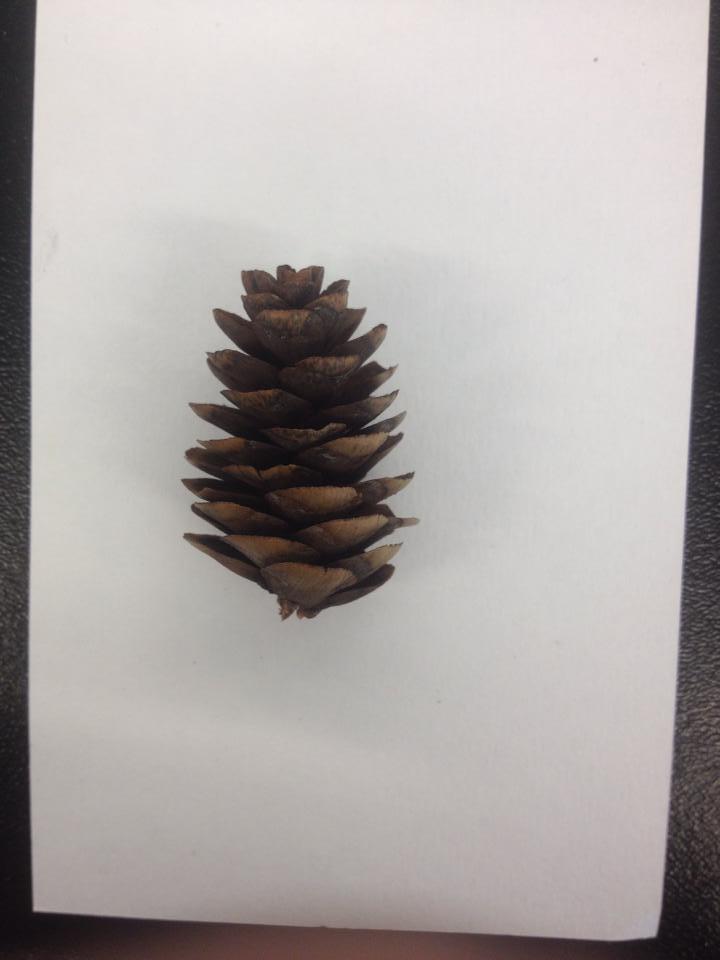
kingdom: Plantae
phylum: Tracheophyta
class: Pinopsida
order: Pinales
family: Pinaceae
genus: Picea
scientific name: Picea glauca
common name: White spruce
